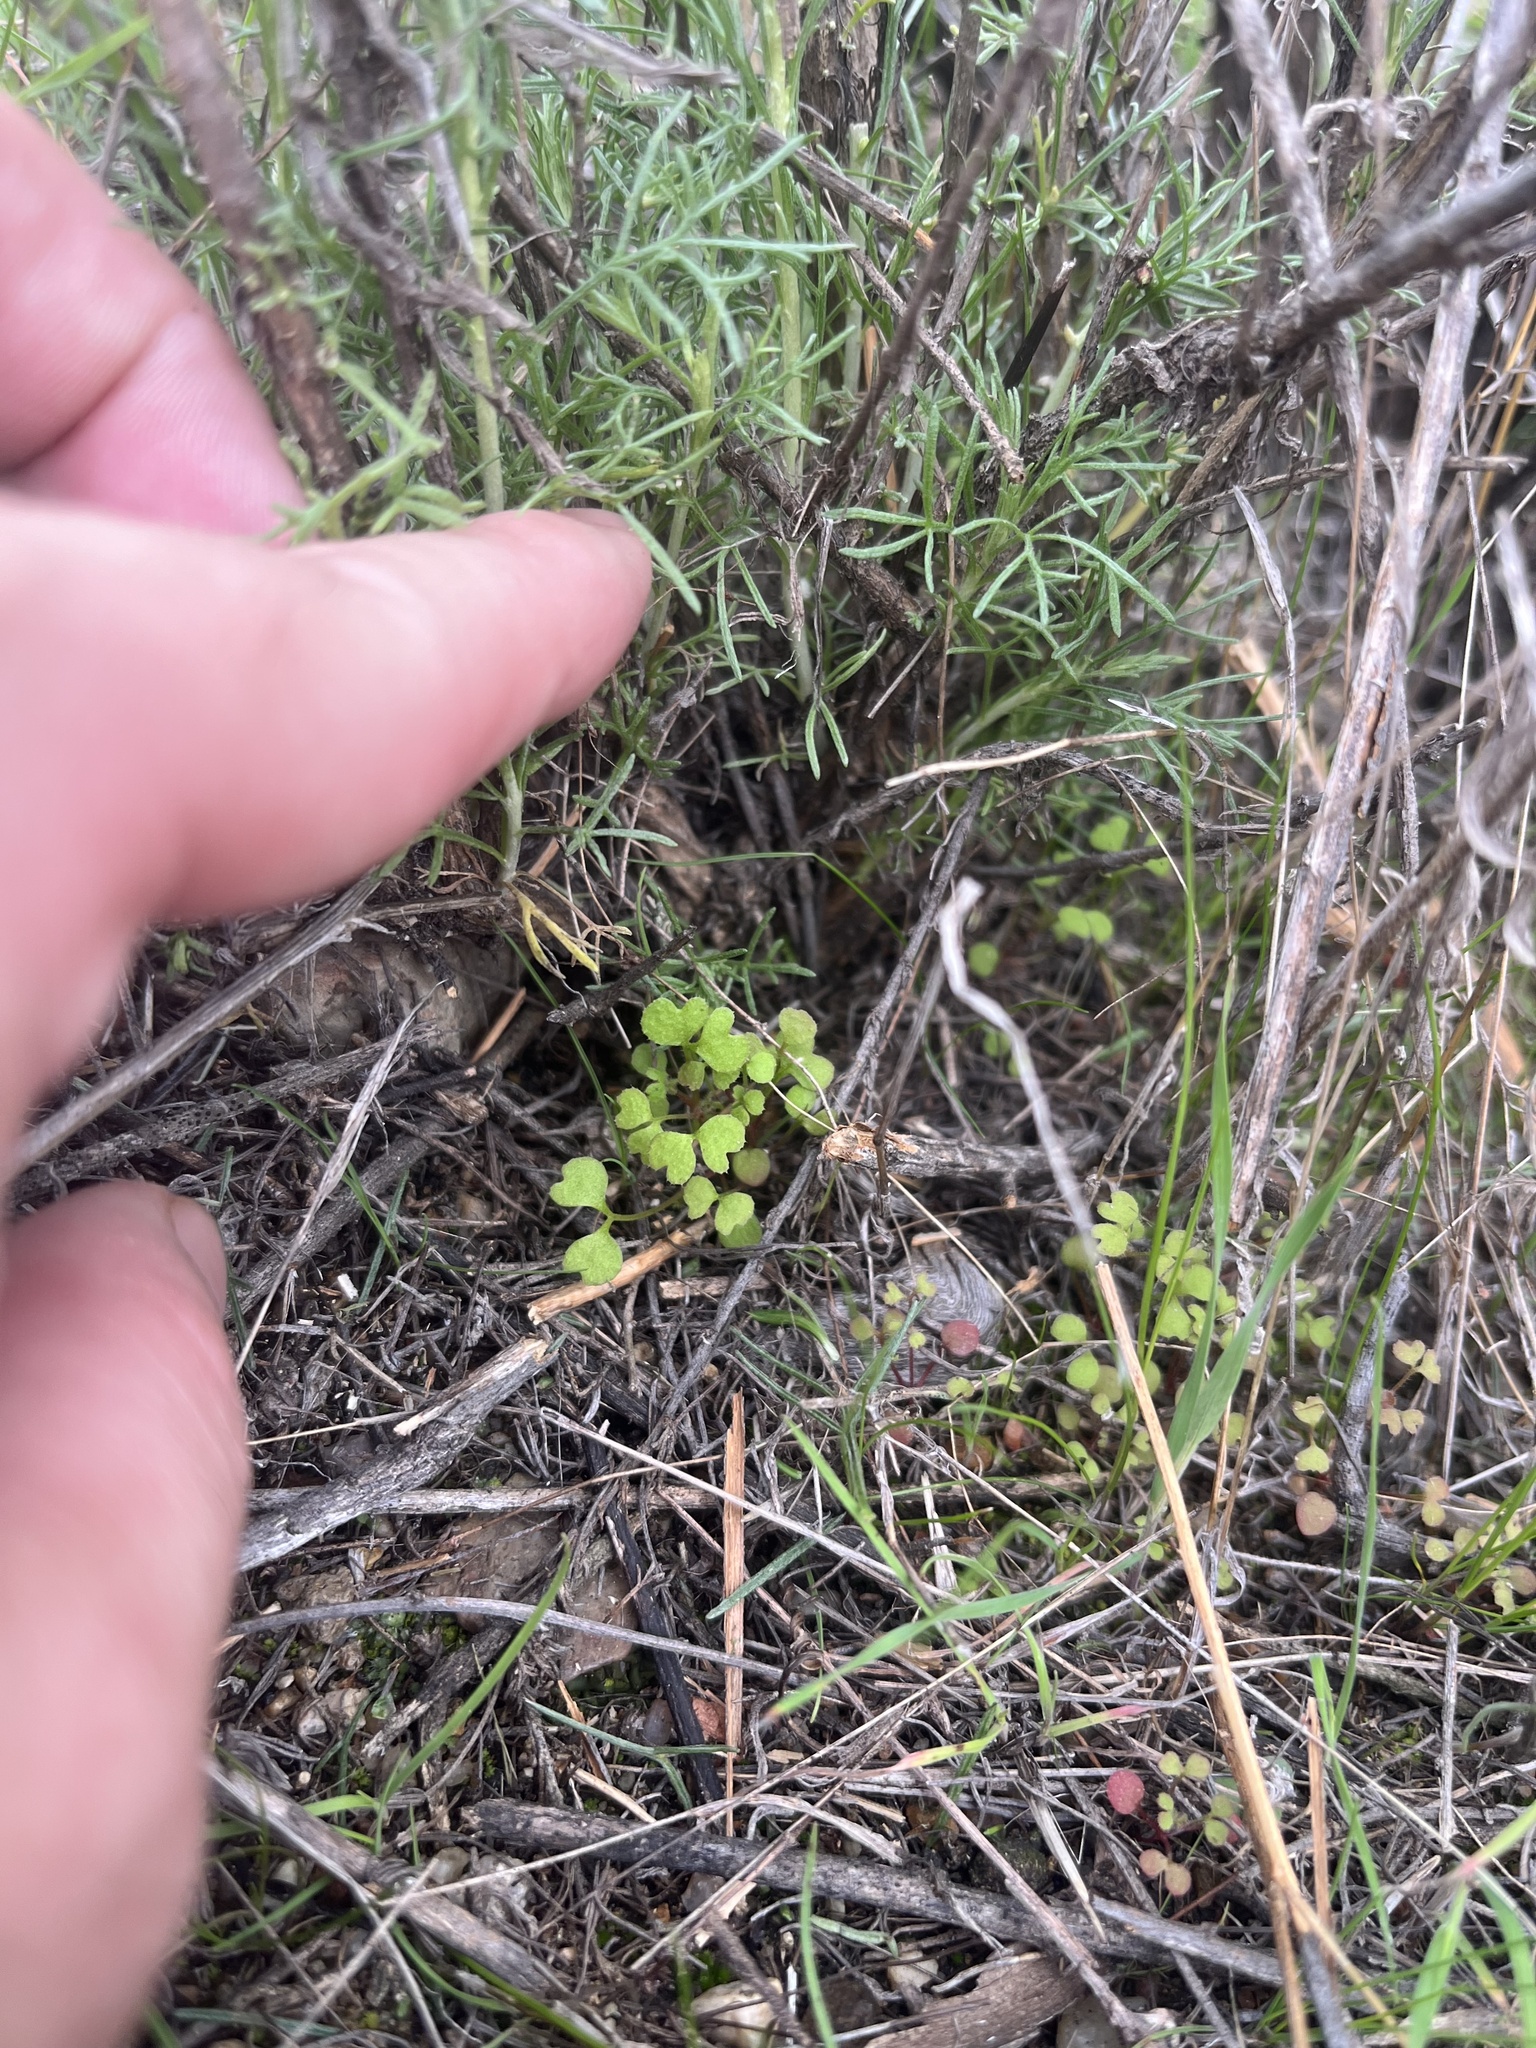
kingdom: Plantae
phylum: Tracheophyta
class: Magnoliopsida
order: Caryophyllales
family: Polygonaceae
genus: Pterostegia
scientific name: Pterostegia drymarioides
